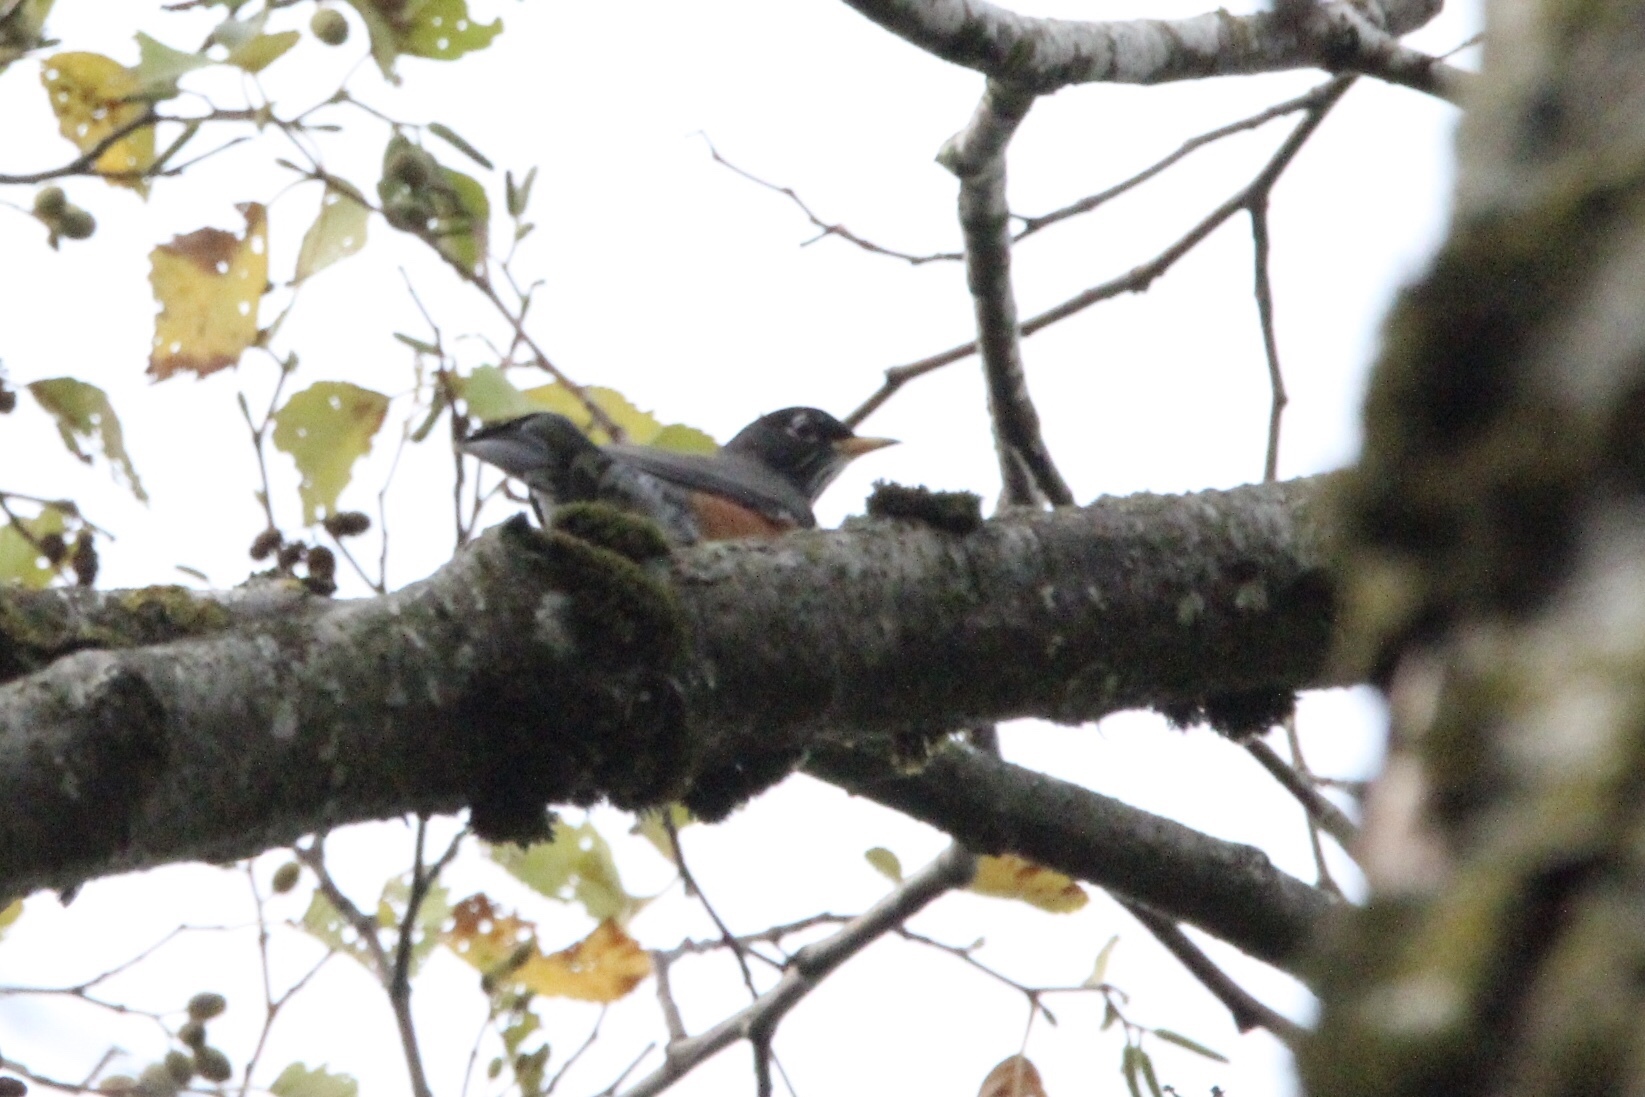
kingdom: Animalia
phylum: Chordata
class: Aves
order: Passeriformes
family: Turdidae
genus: Turdus
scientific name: Turdus migratorius
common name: American robin
